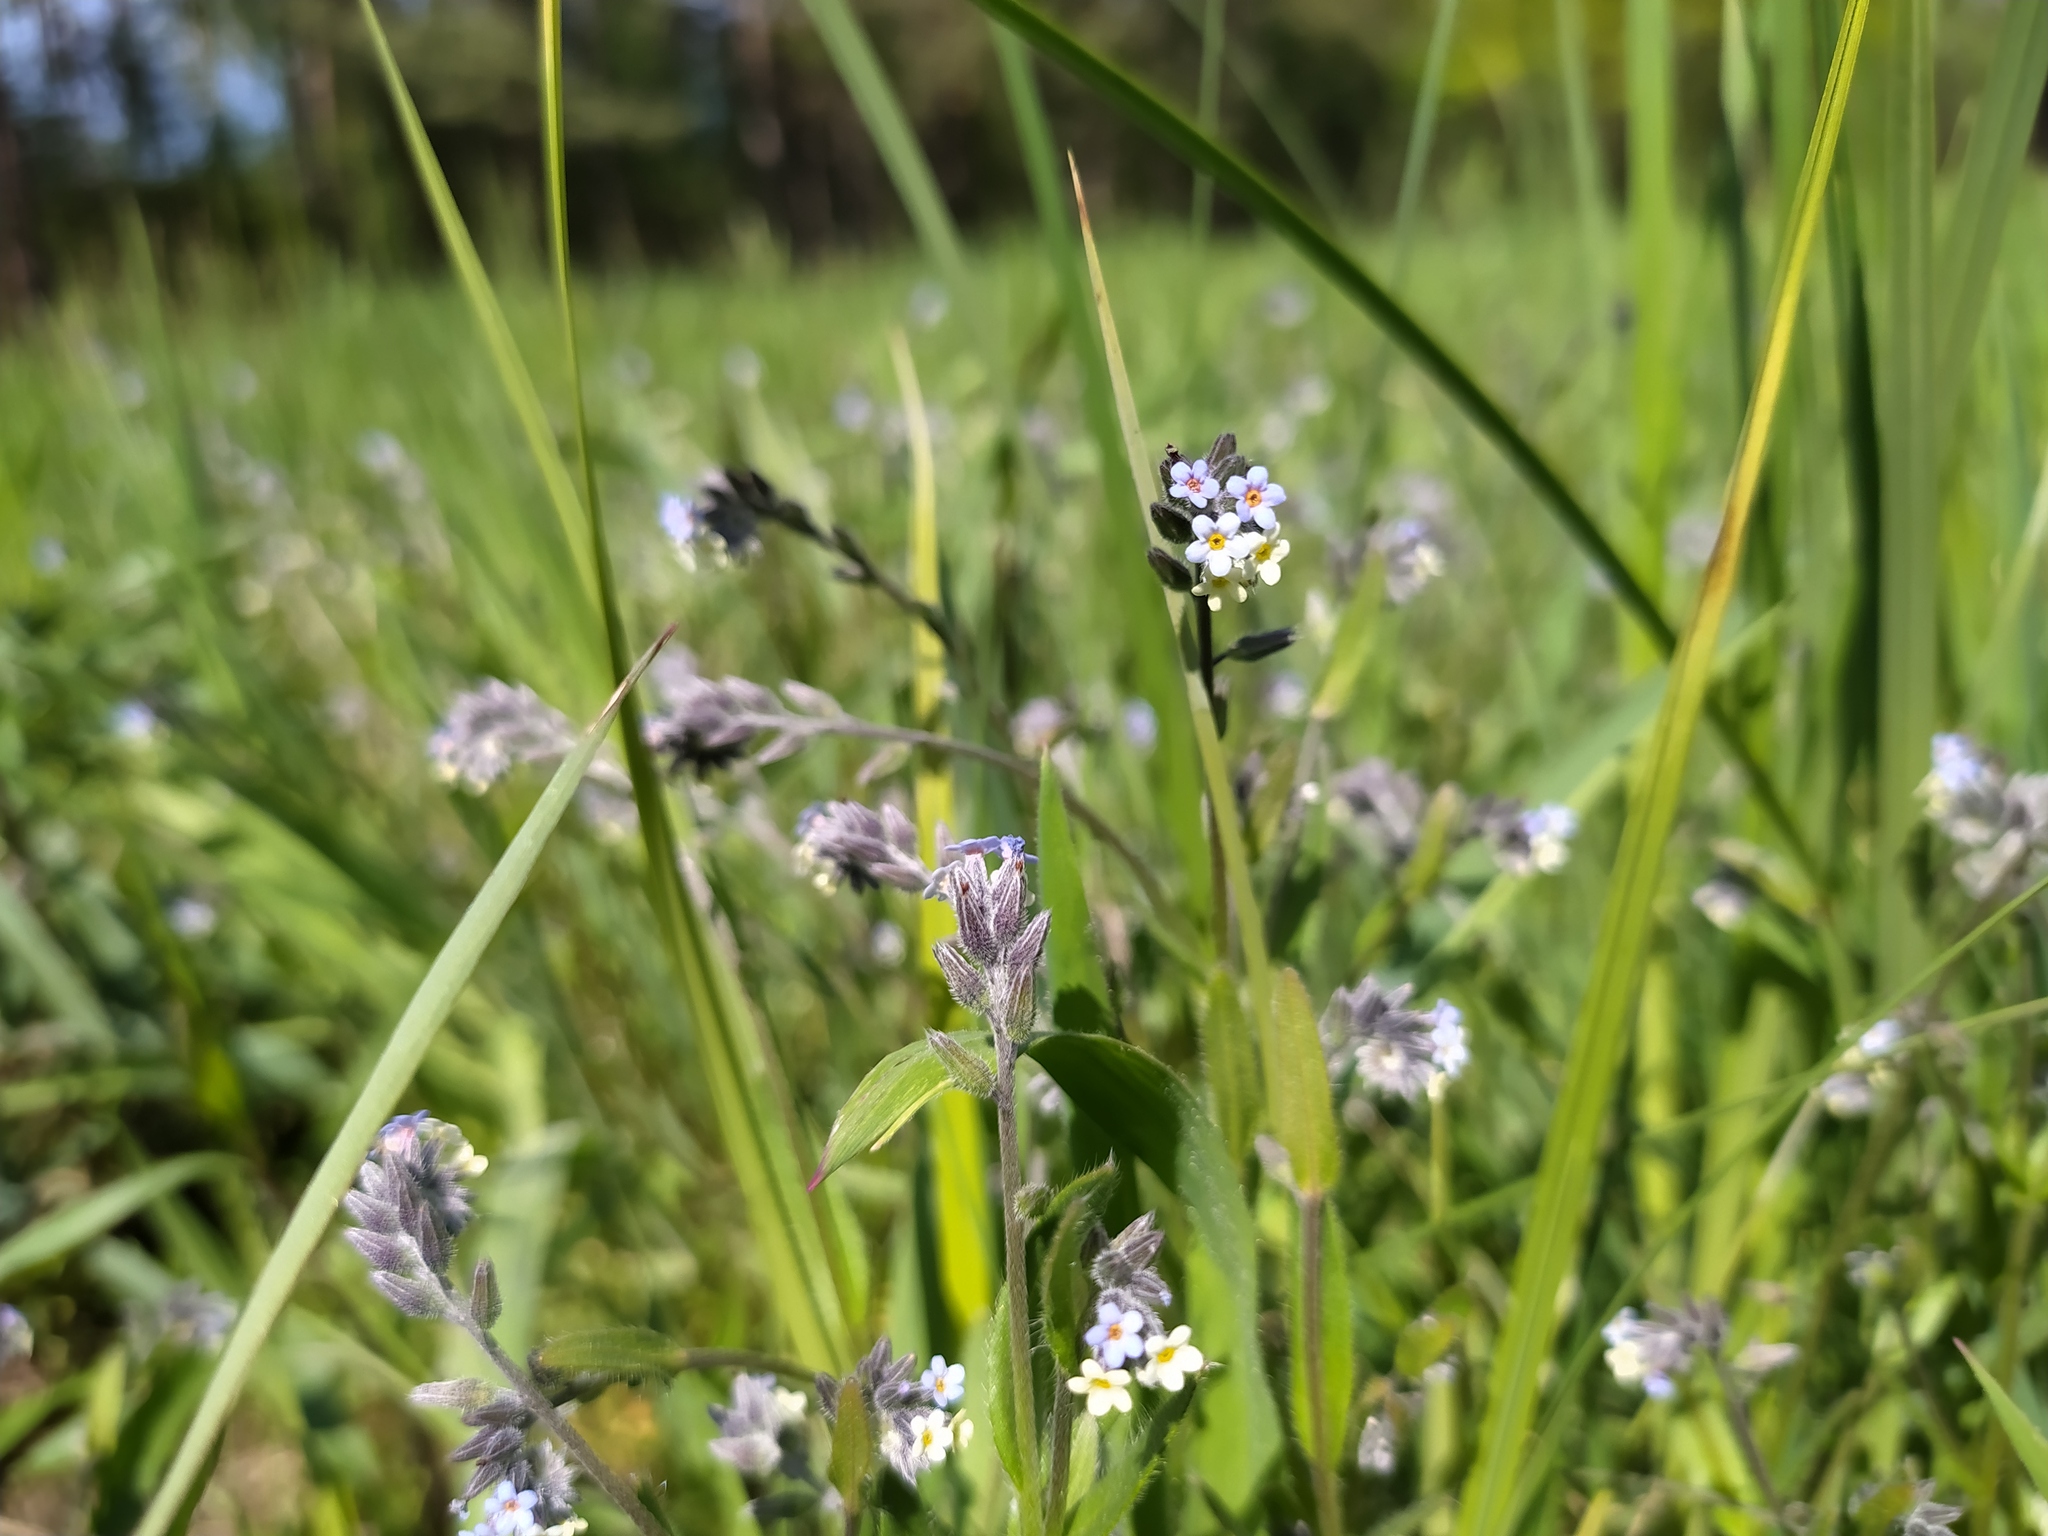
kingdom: Plantae
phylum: Tracheophyta
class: Magnoliopsida
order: Boraginales
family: Boraginaceae
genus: Myosotis
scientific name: Myosotis discolor
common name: Changing forget-me-not
